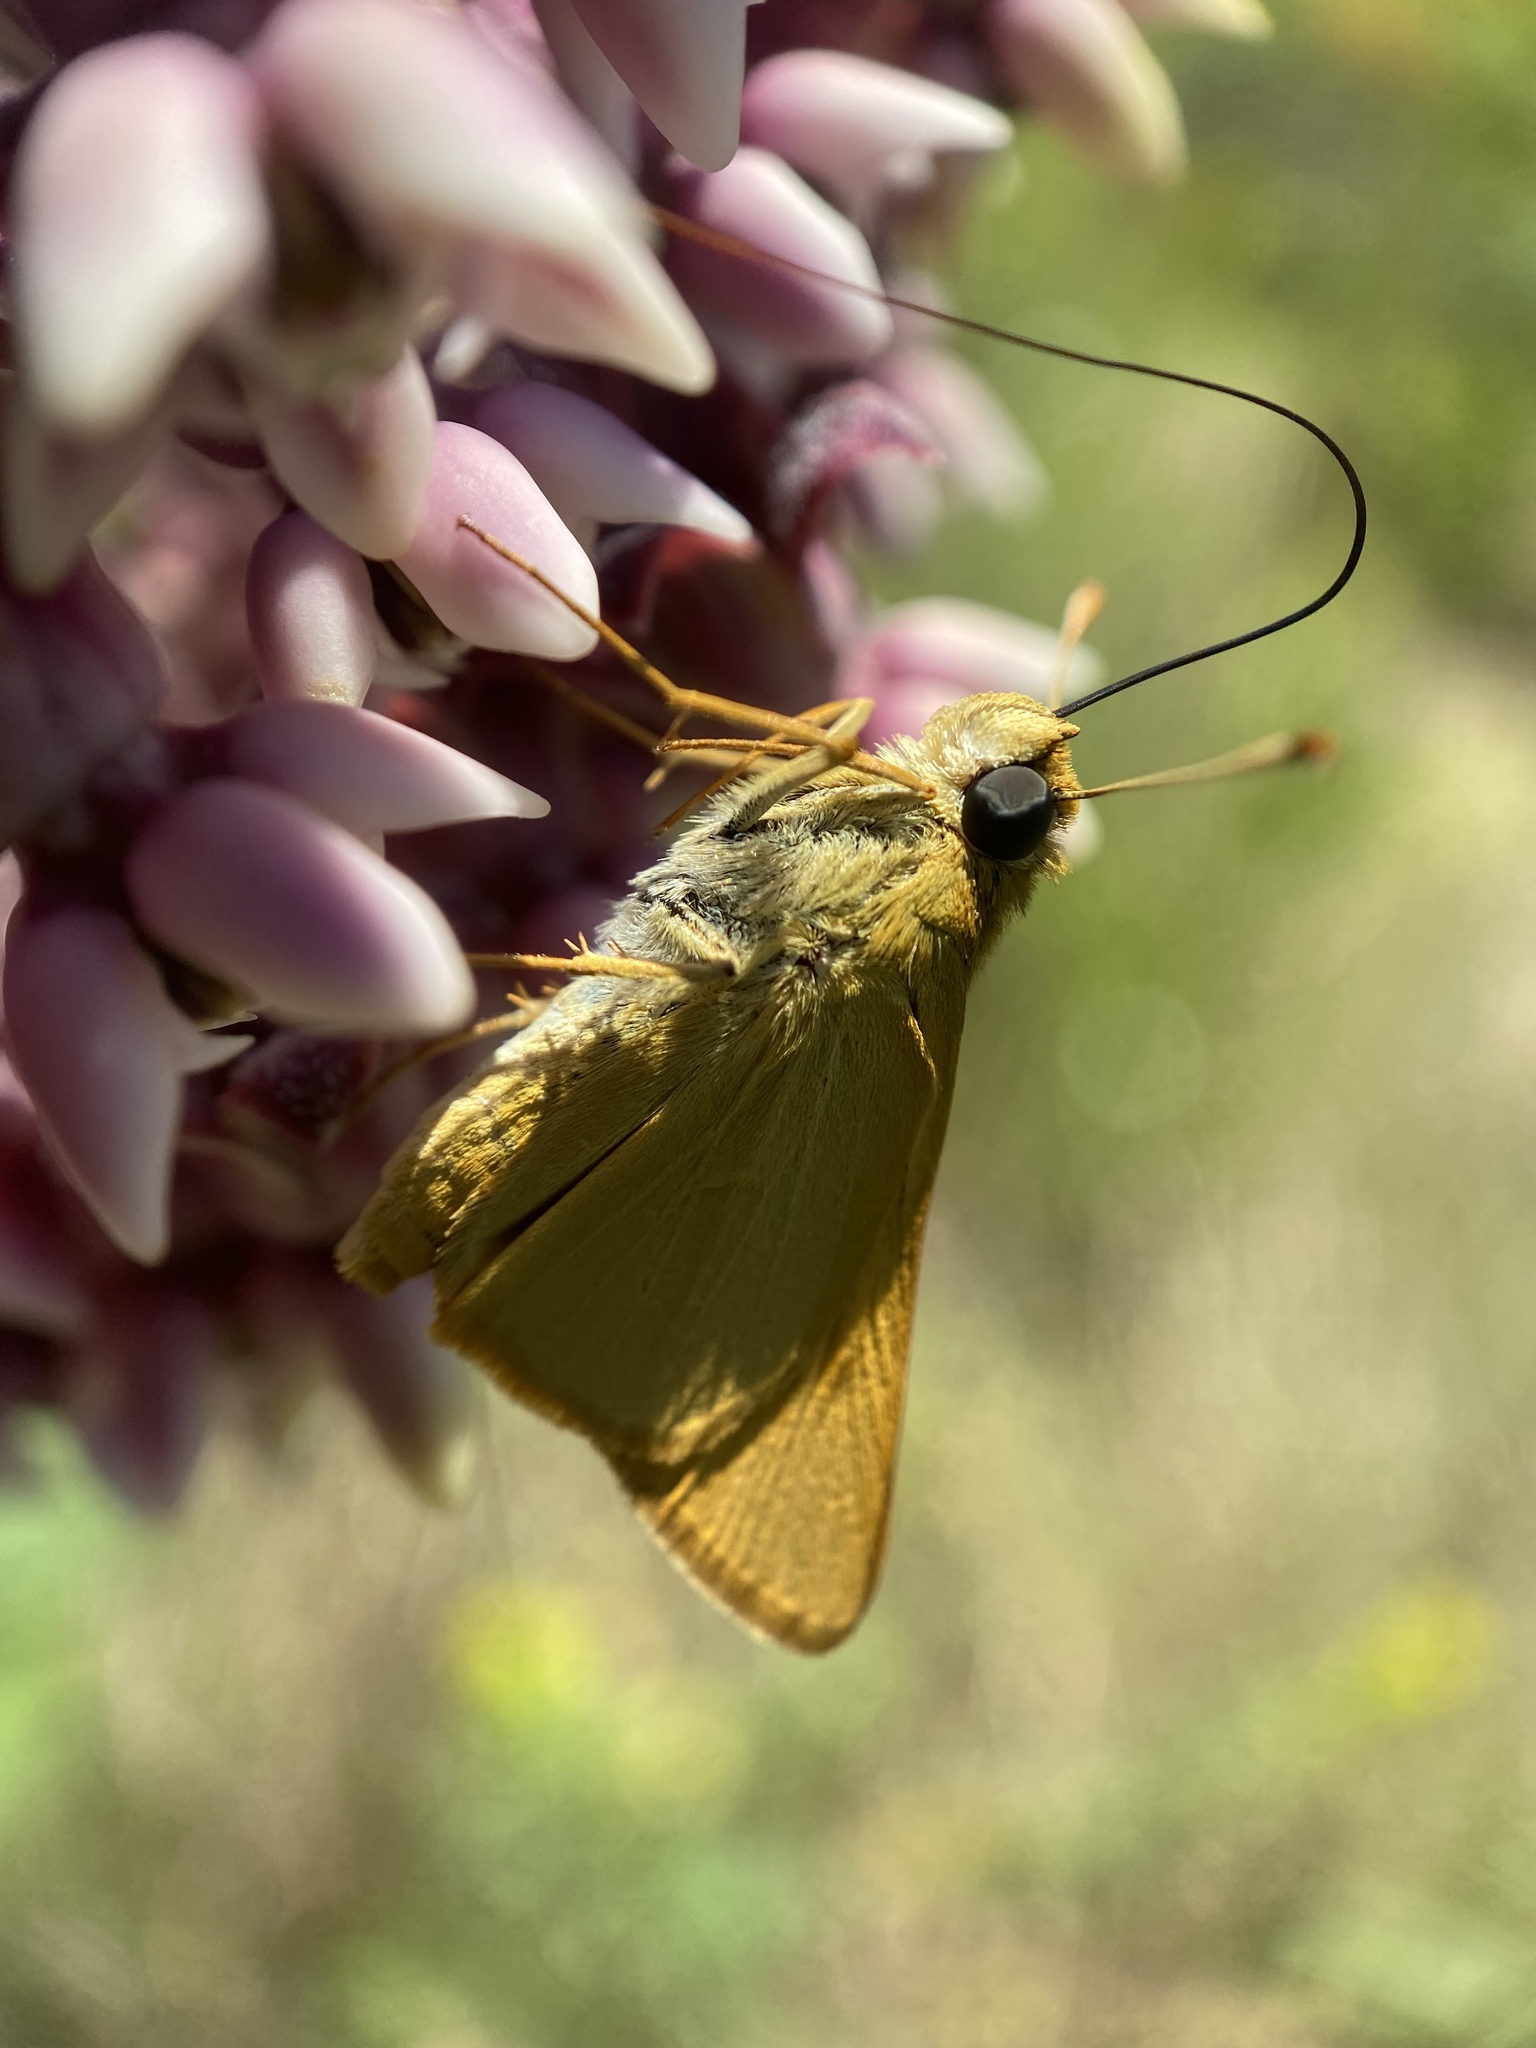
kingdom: Animalia
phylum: Arthropoda
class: Insecta
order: Lepidoptera
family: Hesperiidae
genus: Atrytone
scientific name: Atrytone delaware
